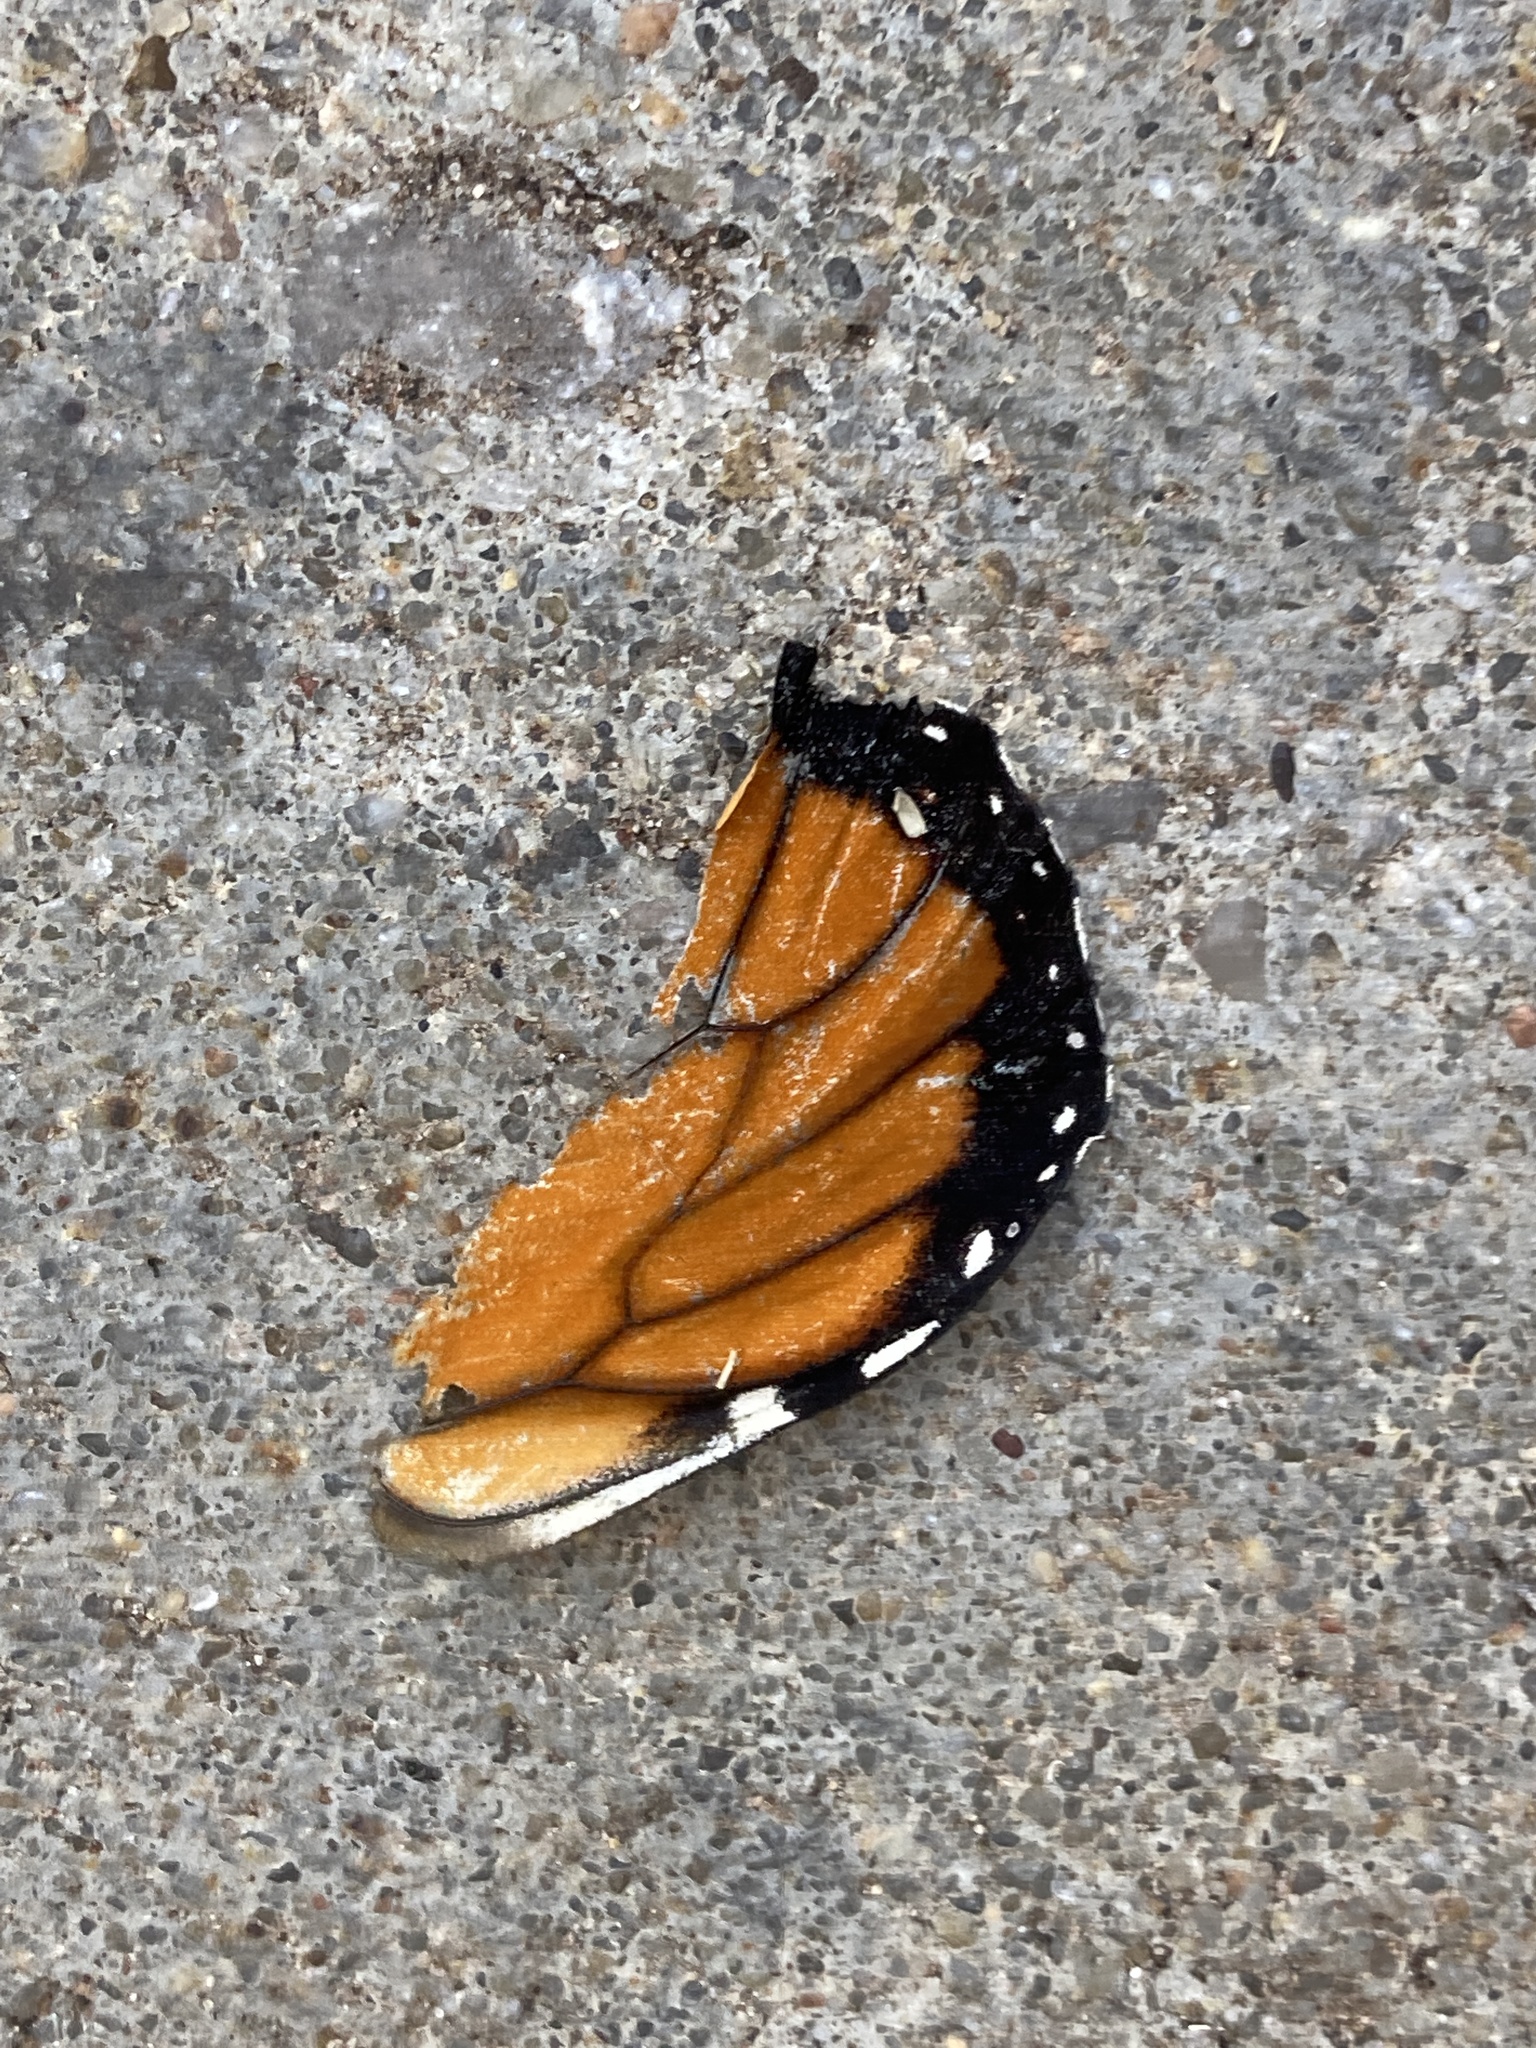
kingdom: Animalia
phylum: Arthropoda
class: Insecta
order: Lepidoptera
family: Nymphalidae
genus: Danaus
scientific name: Danaus plexippus
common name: Monarch
